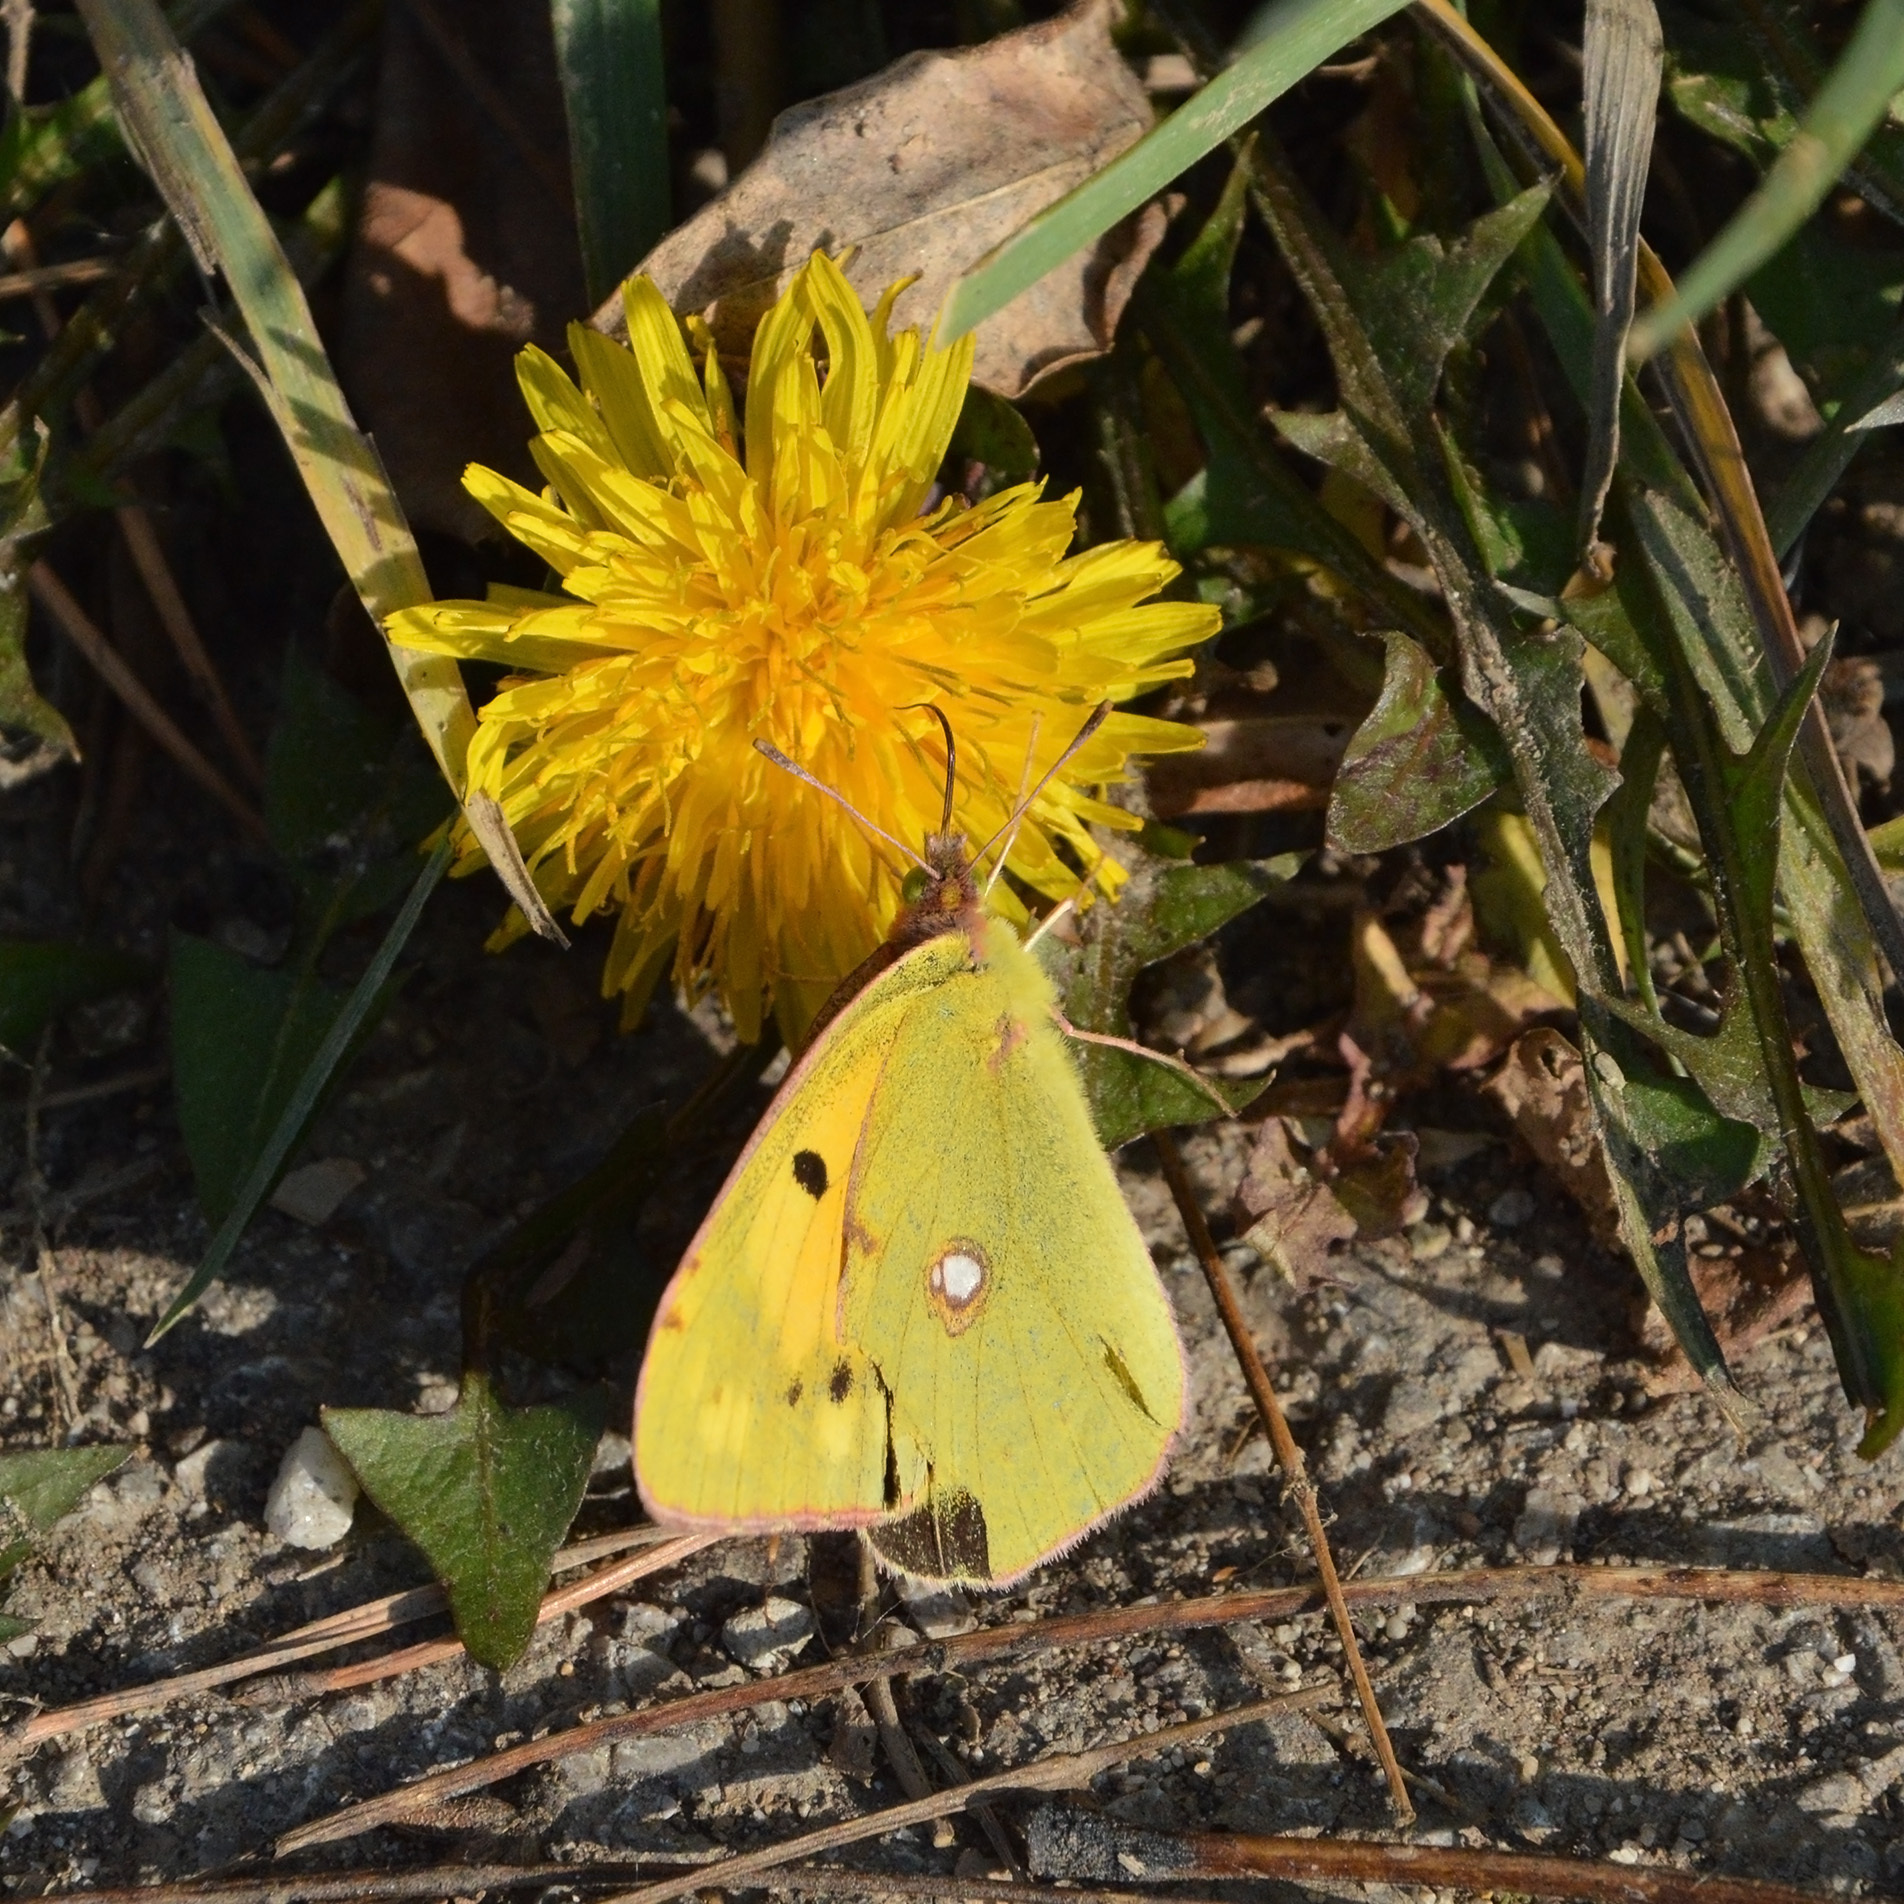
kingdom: Animalia
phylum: Arthropoda
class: Insecta
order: Lepidoptera
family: Pieridae
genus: Colias
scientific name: Colias croceus
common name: Clouded yellow
